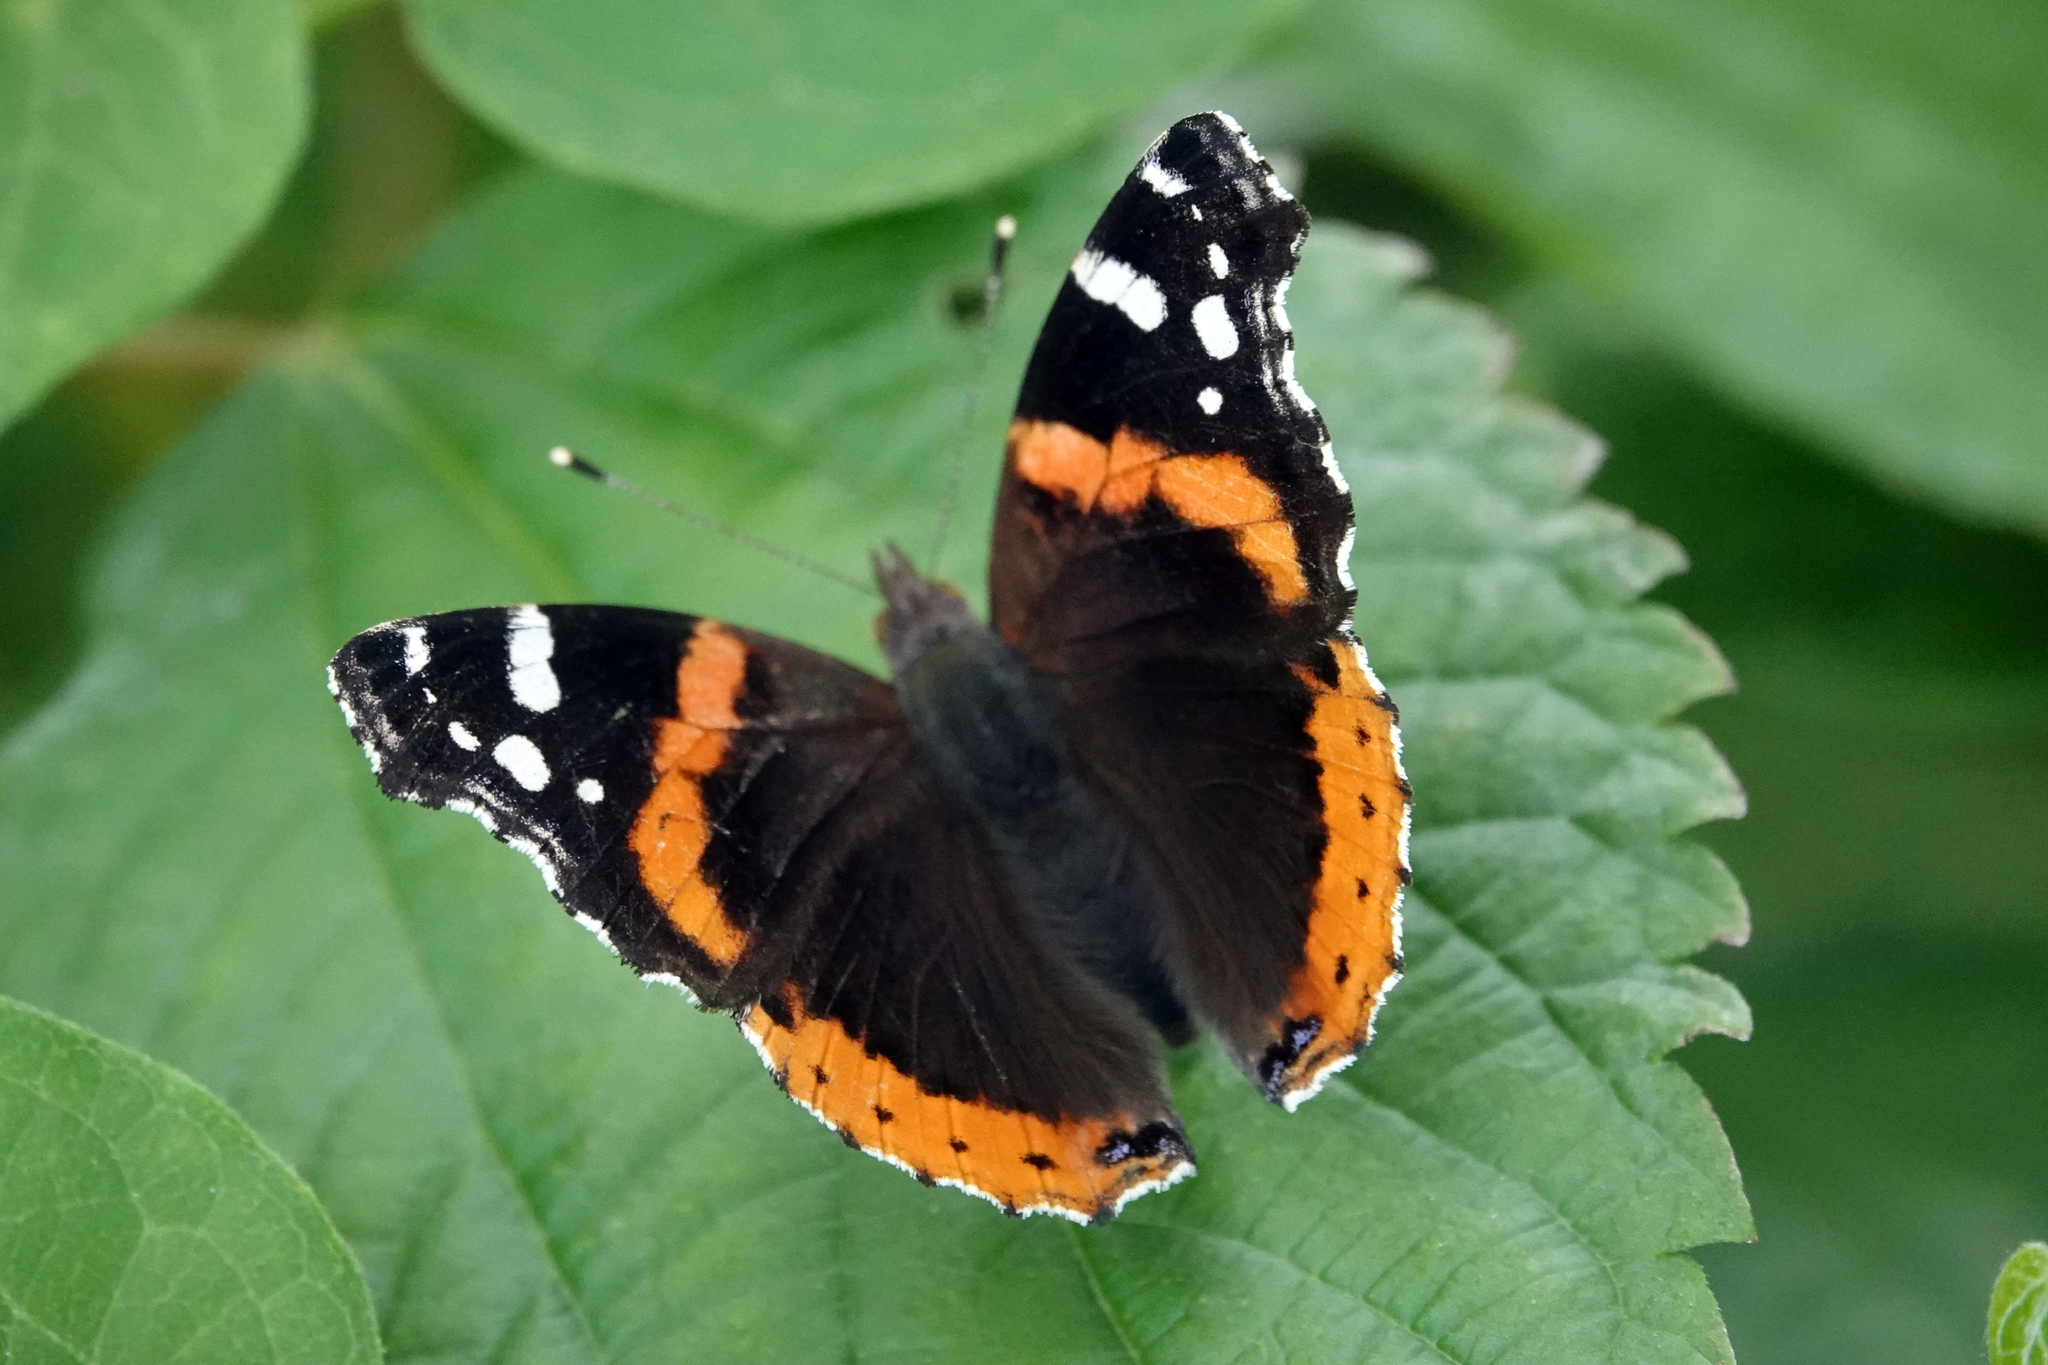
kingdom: Animalia
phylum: Arthropoda
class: Insecta
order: Lepidoptera
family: Nymphalidae
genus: Vanessa
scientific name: Vanessa atalanta
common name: Red admiral
